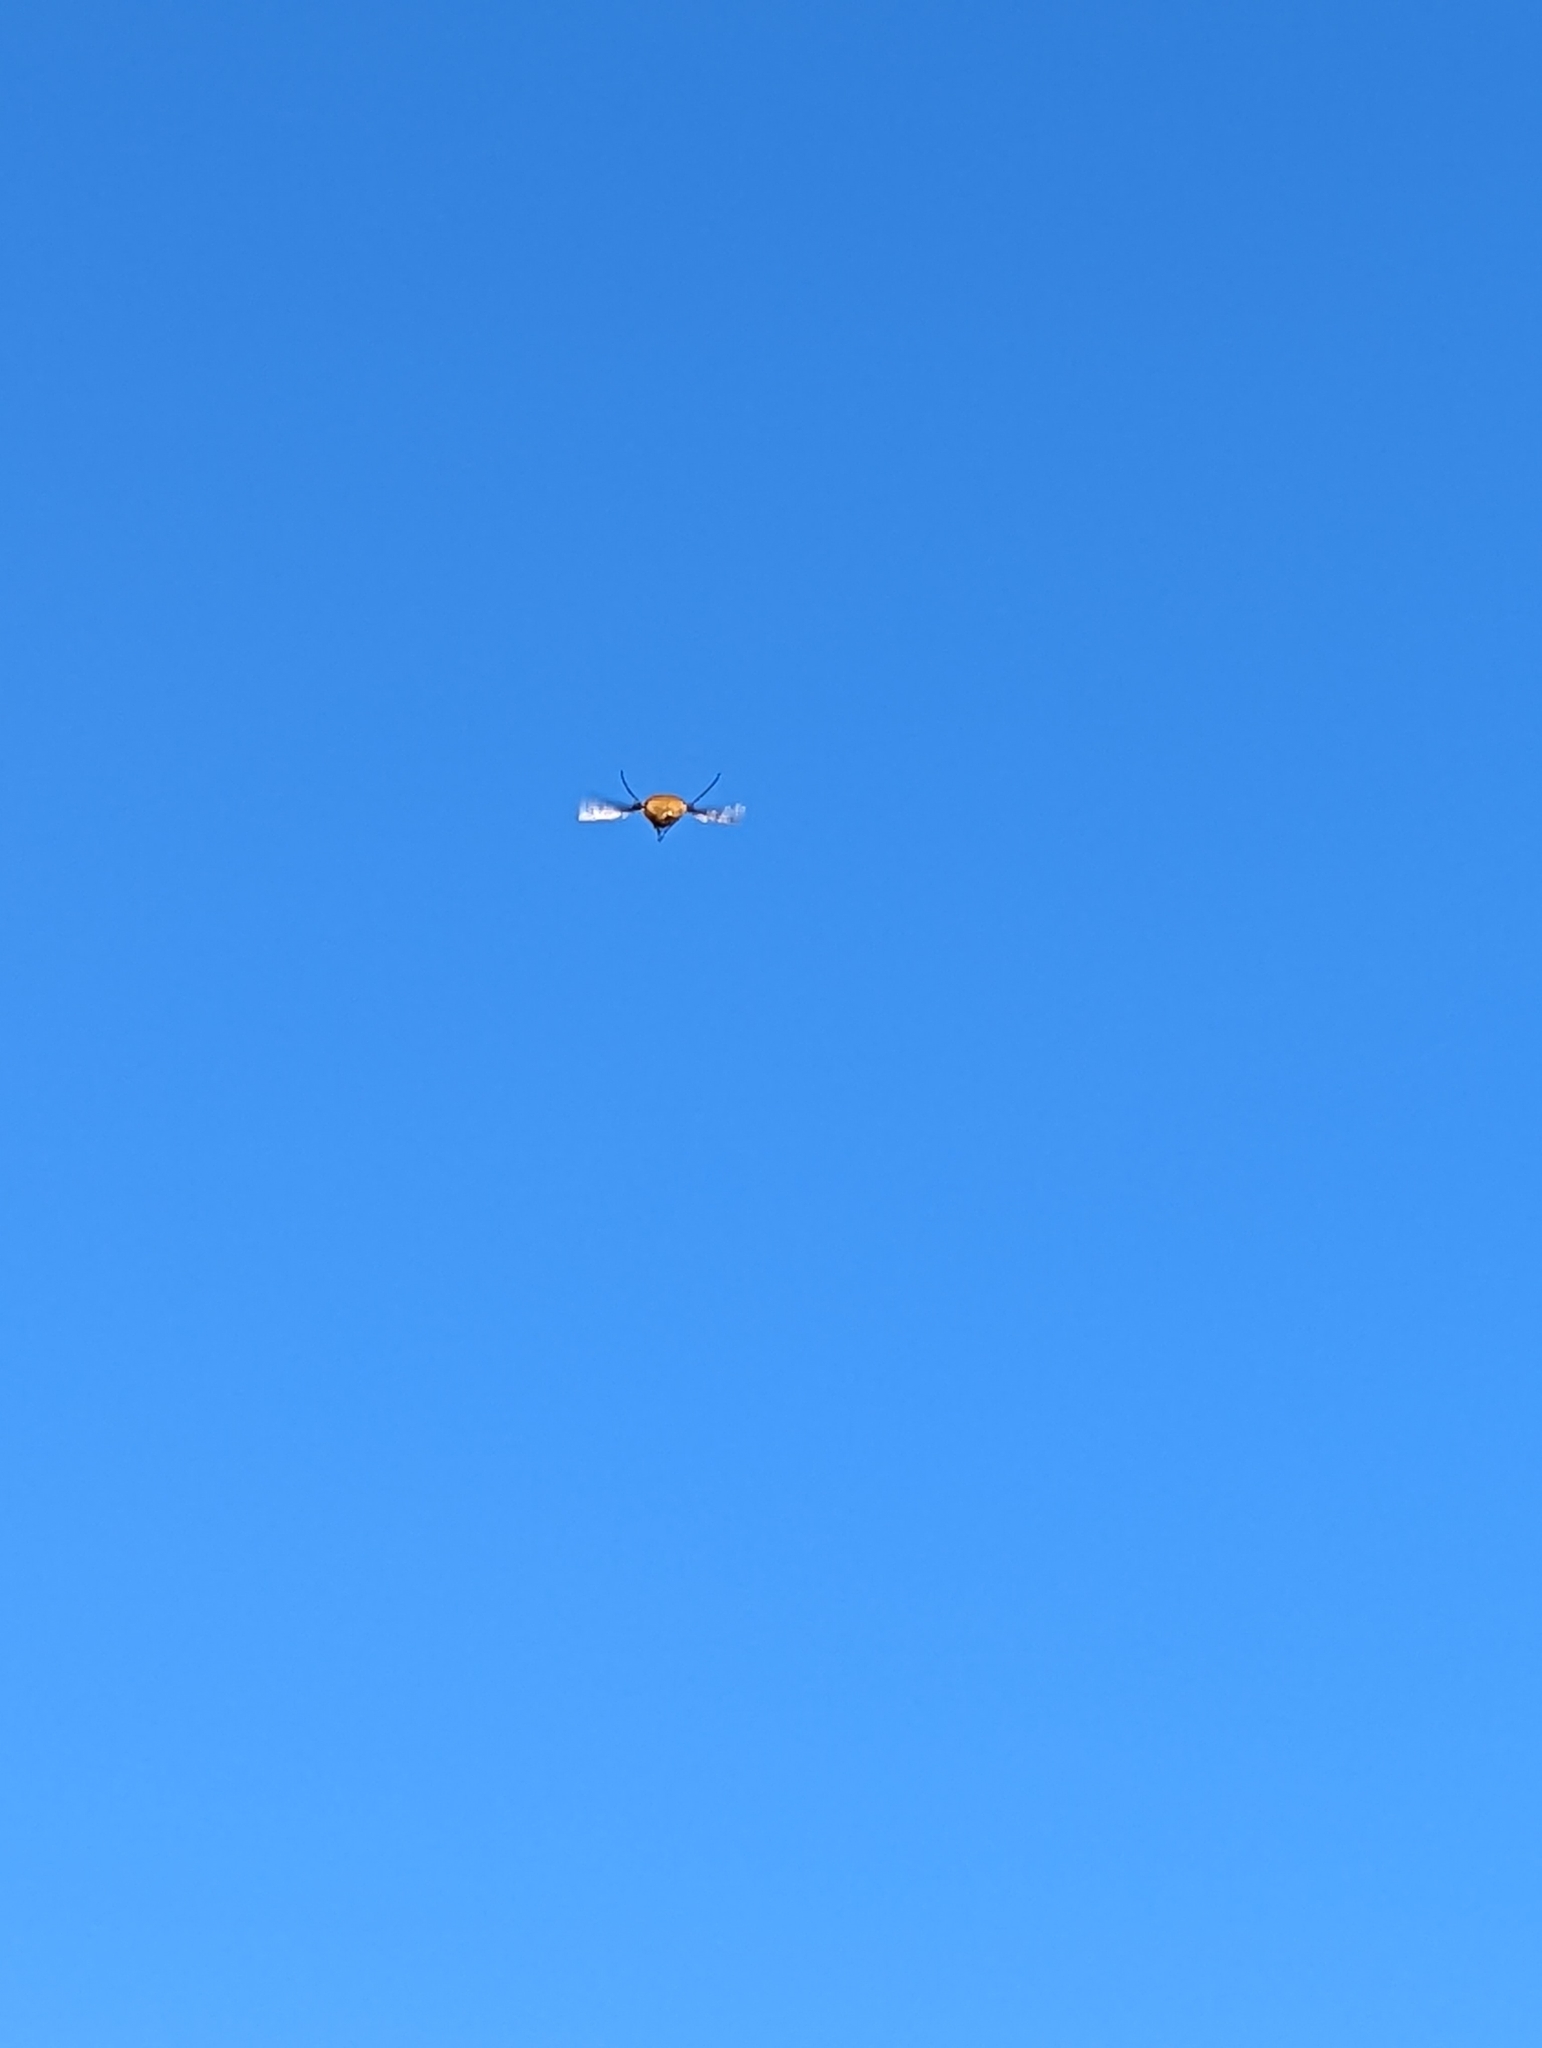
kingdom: Animalia
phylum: Arthropoda
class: Insecta
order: Diptera
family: Bombyliidae
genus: Bombylius
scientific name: Bombylius major
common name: Bee fly
